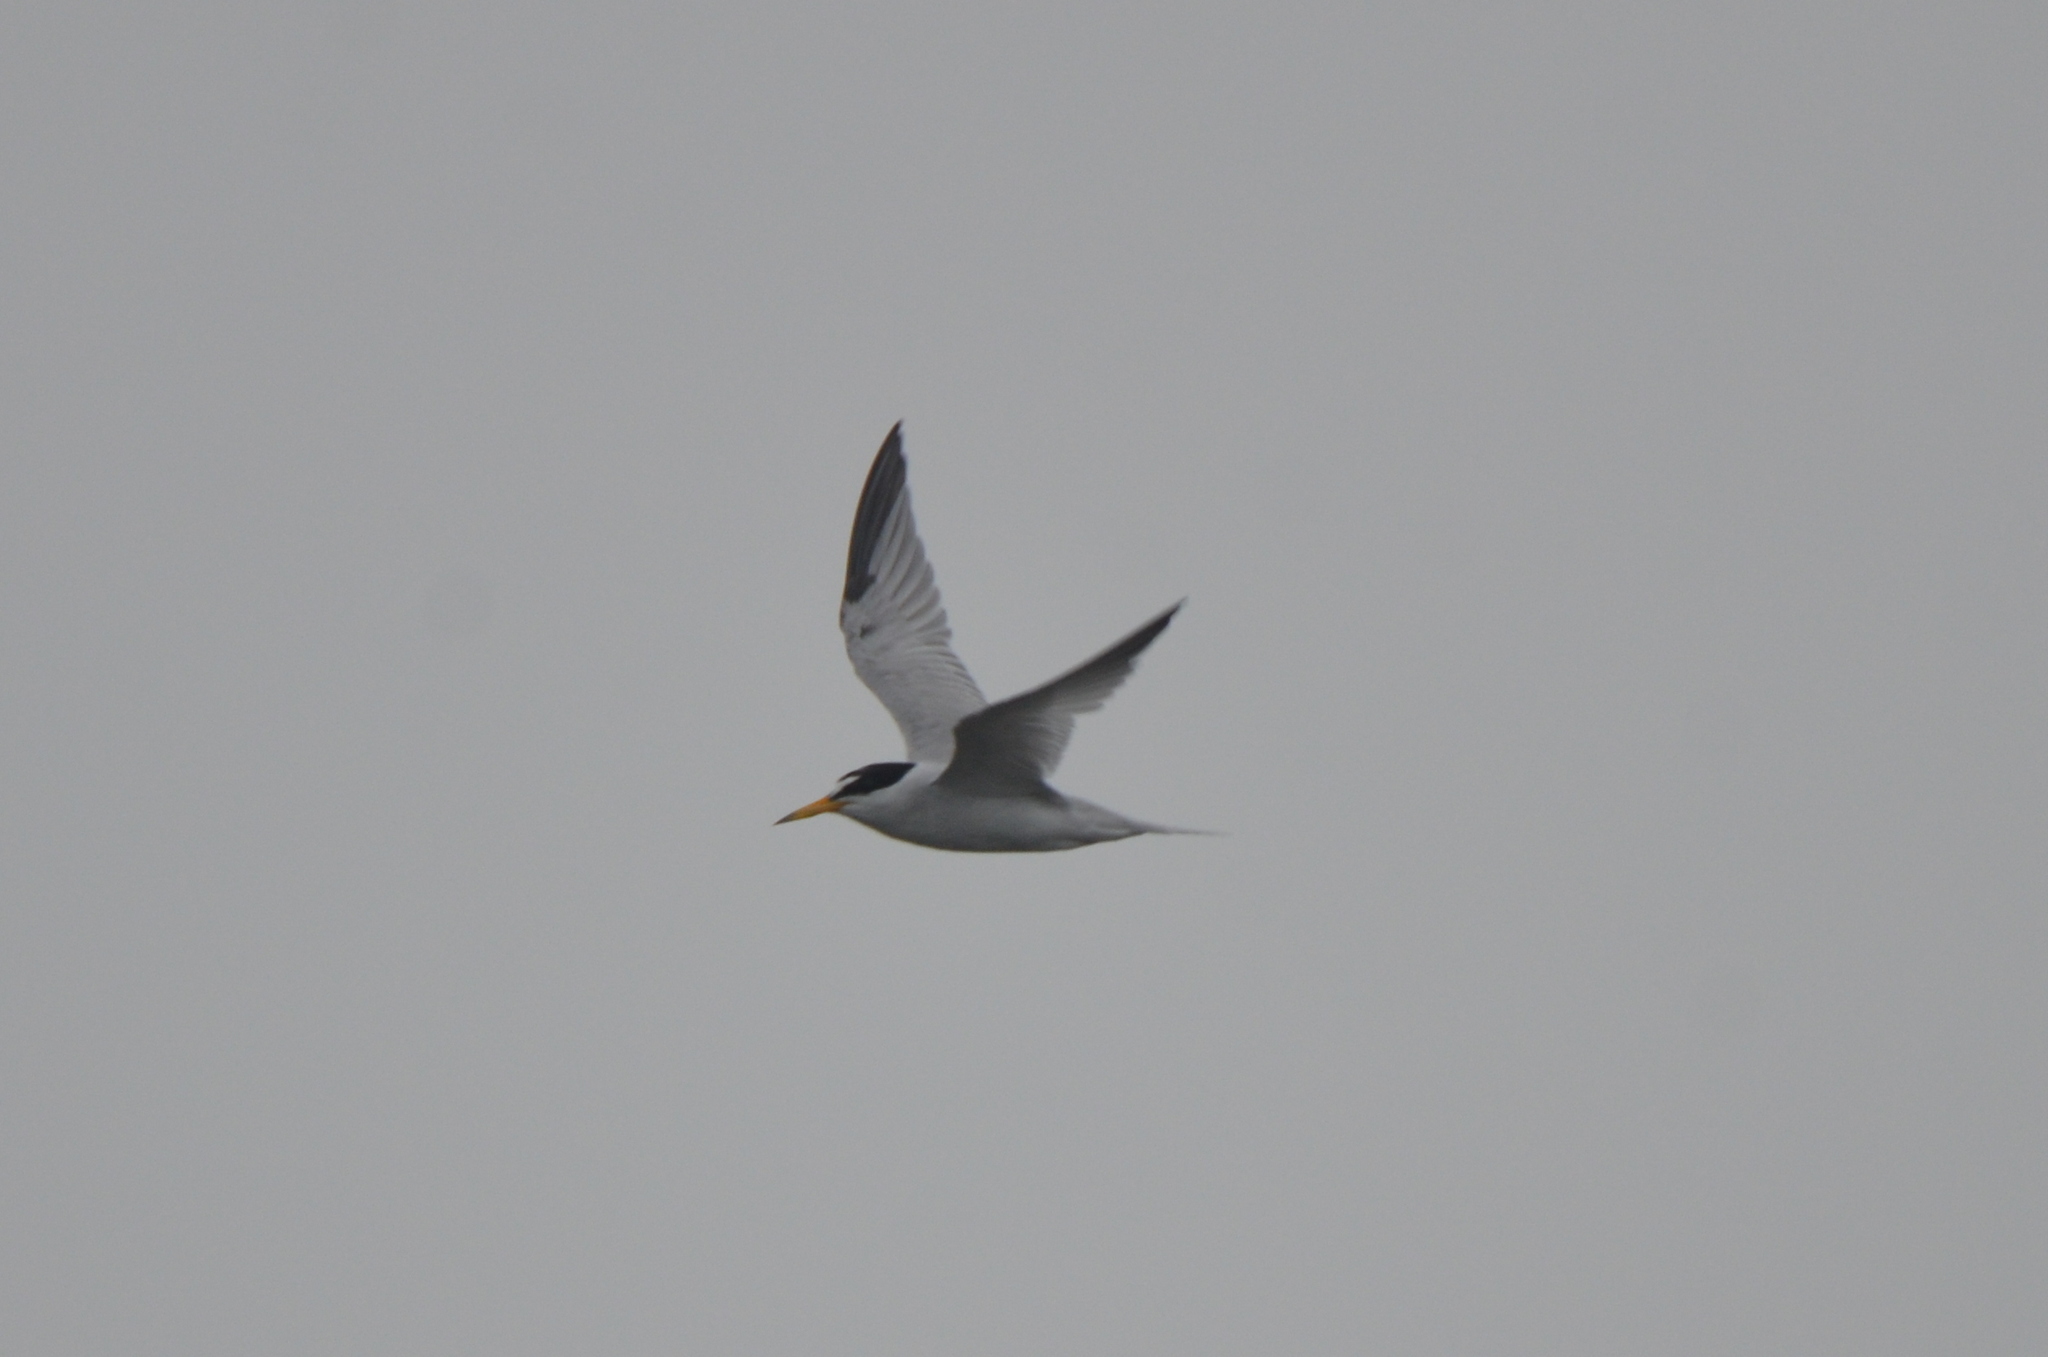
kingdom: Animalia
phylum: Chordata
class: Aves
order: Charadriiformes
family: Laridae
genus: Sternula
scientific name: Sternula antillarum
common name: Least tern
